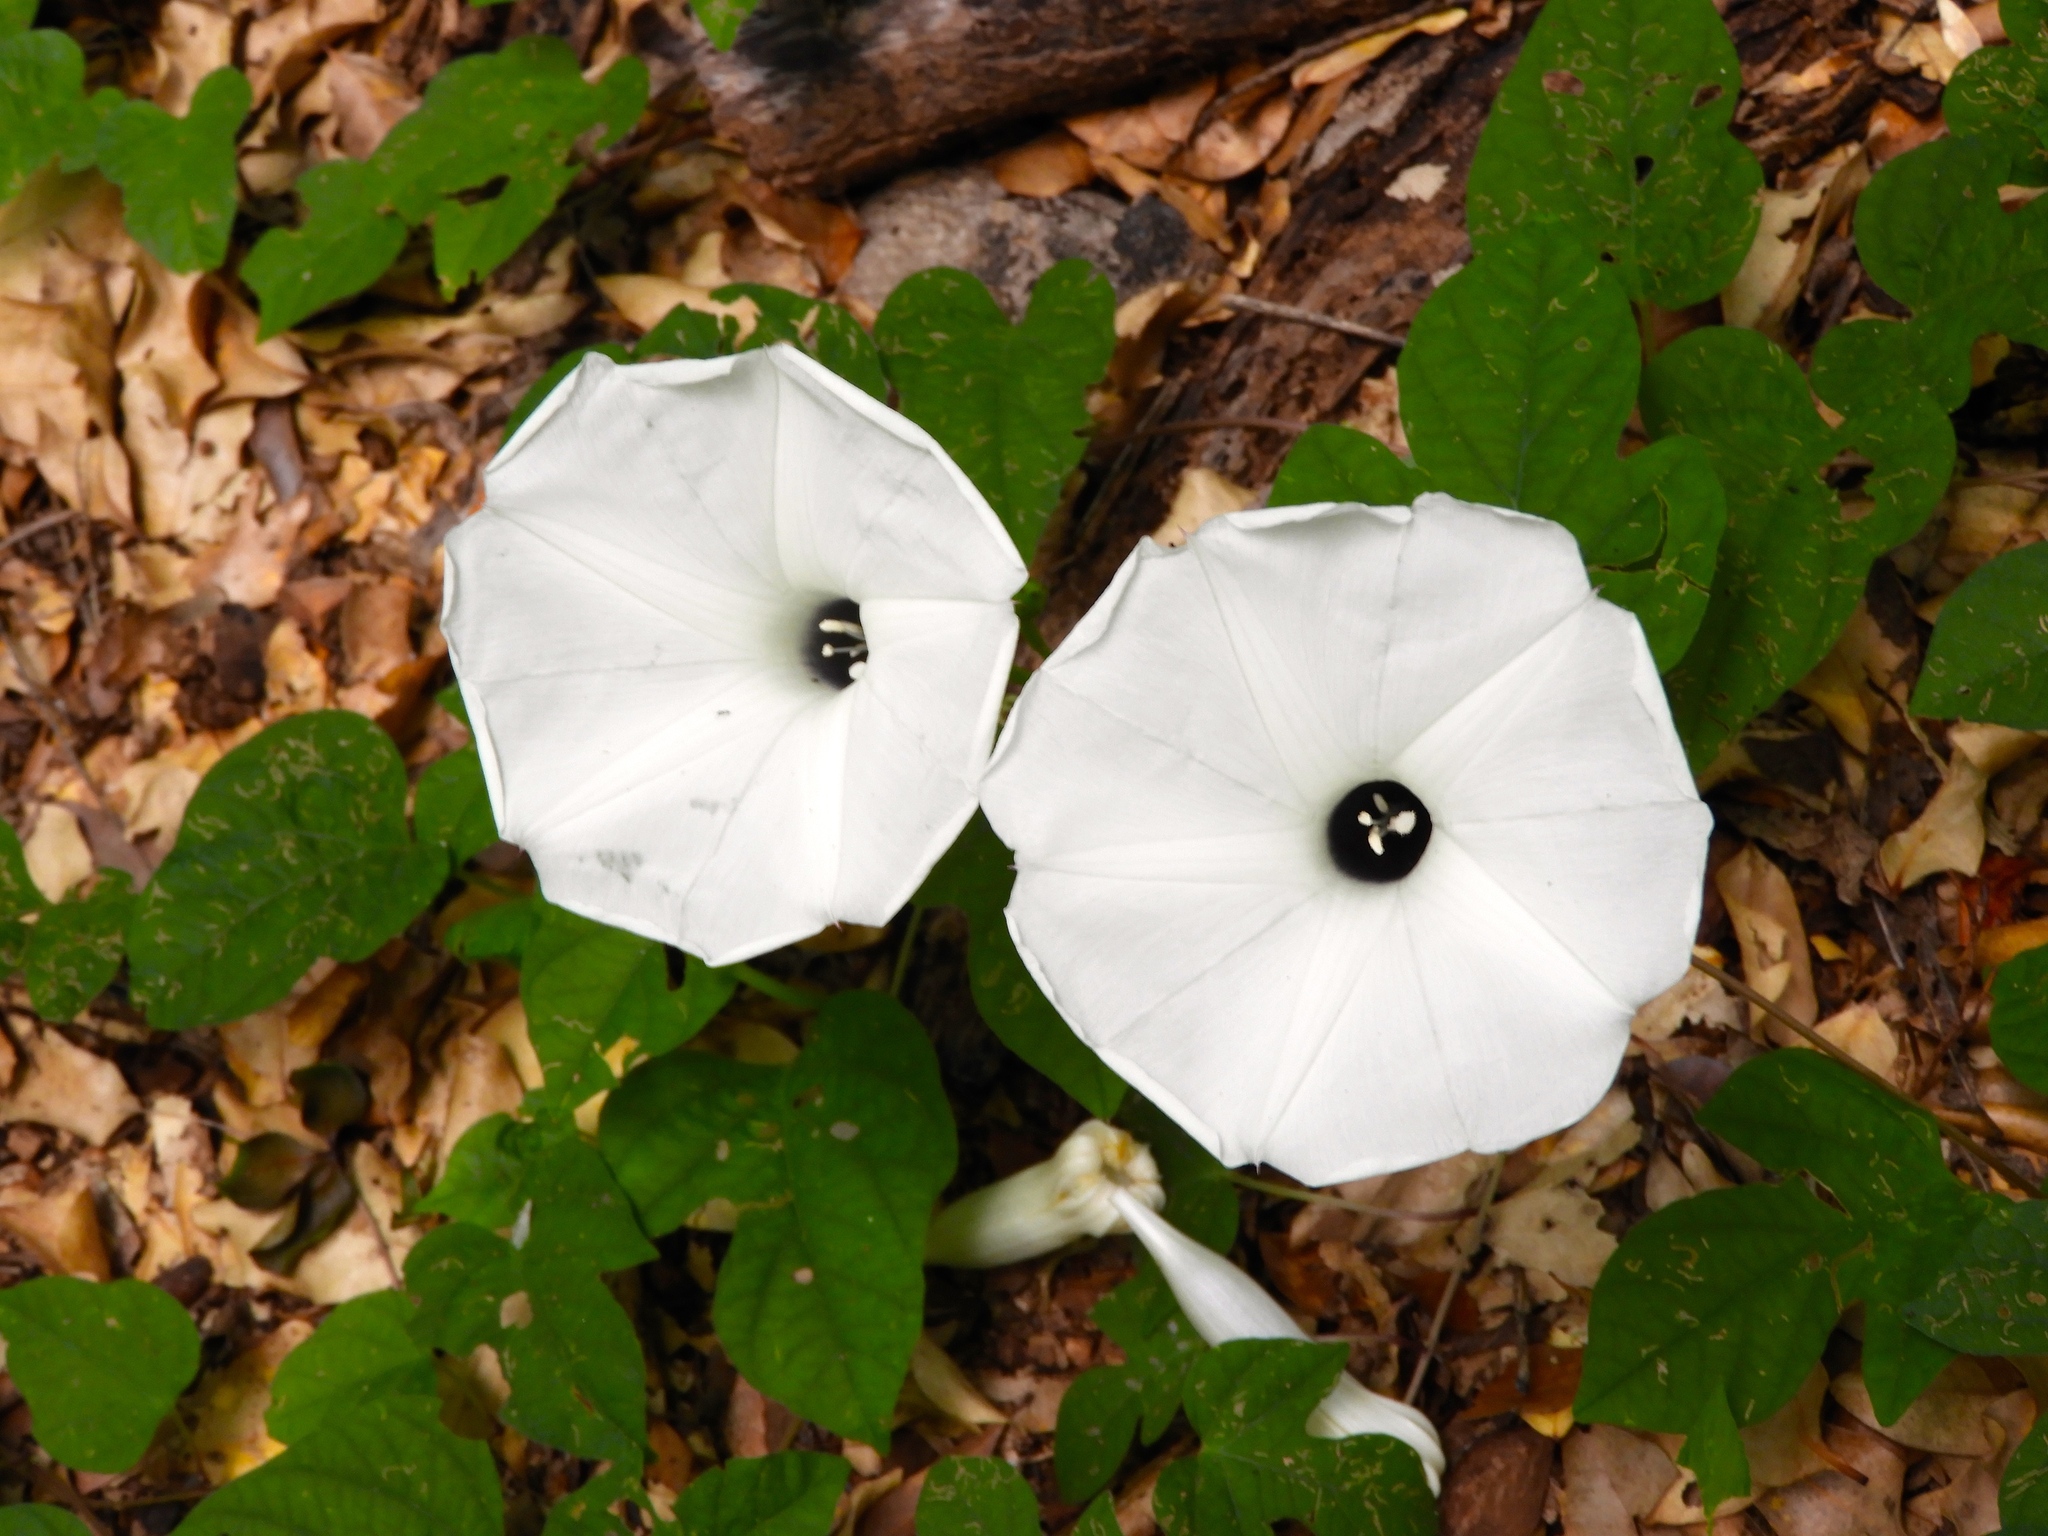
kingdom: Plantae
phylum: Tracheophyta
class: Magnoliopsida
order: Solanales
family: Convolvulaceae
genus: Ipomoea
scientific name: Ipomoea scopulorum
